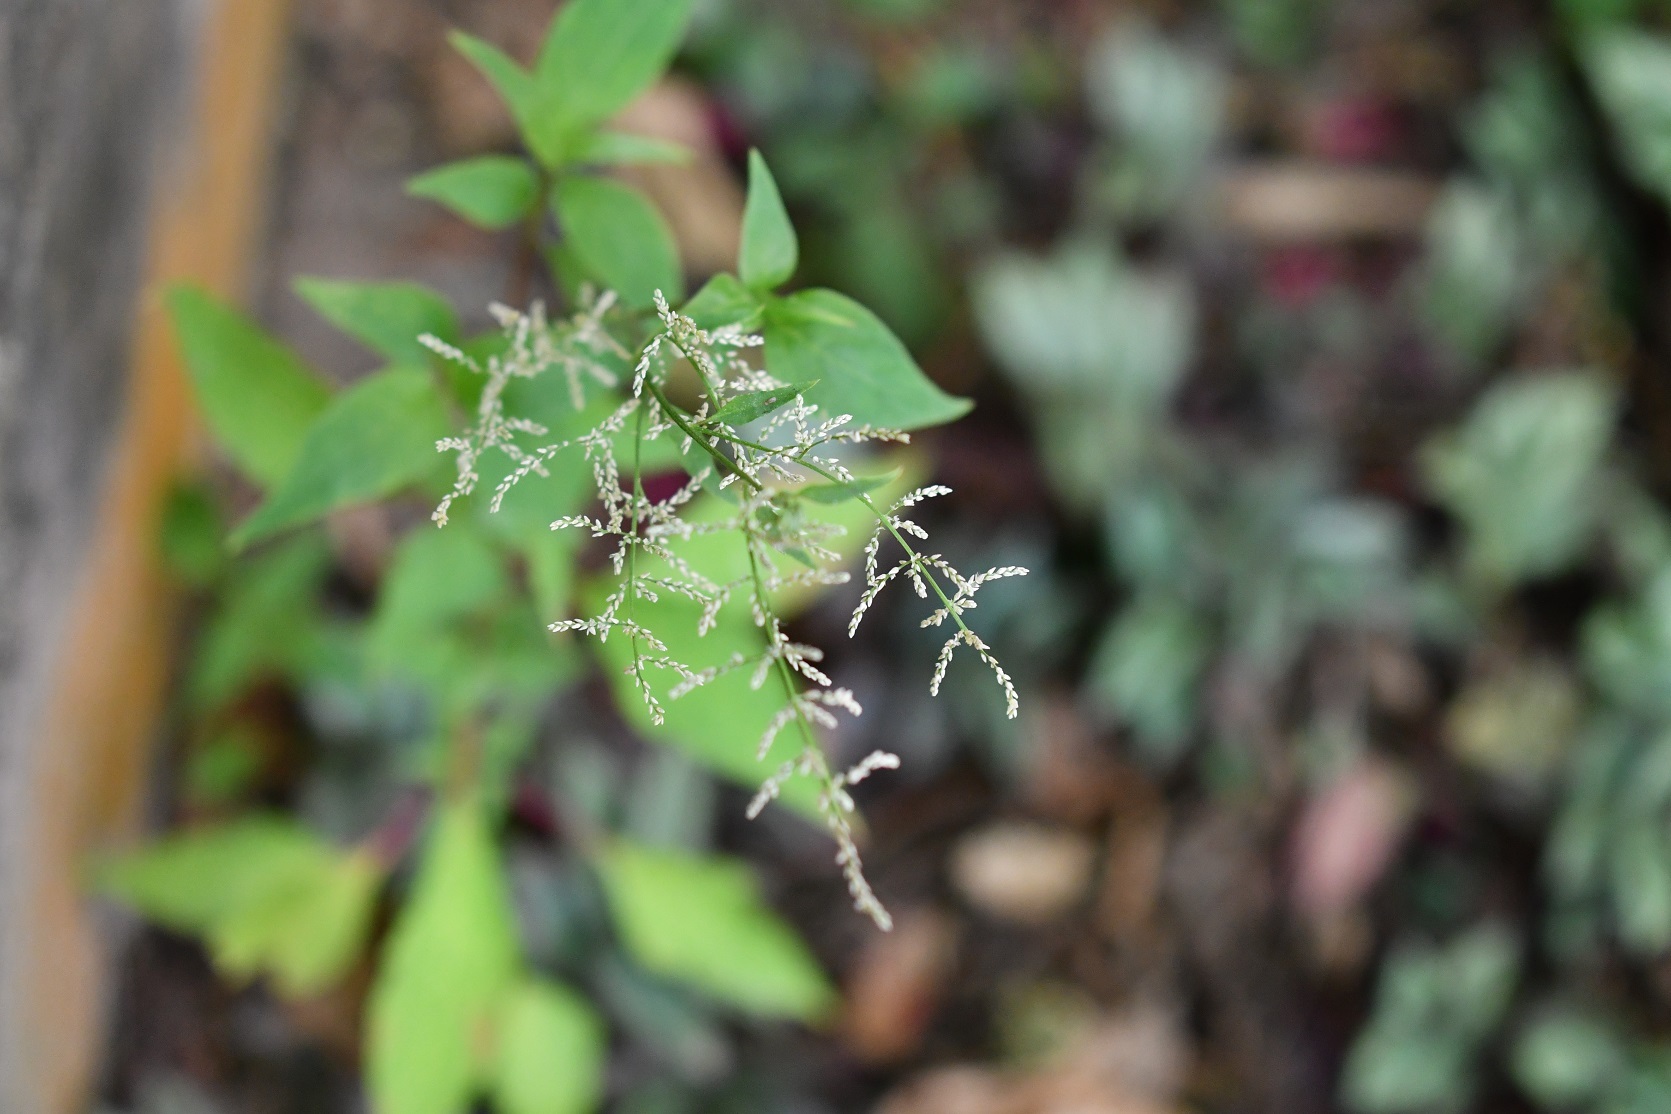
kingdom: Plantae
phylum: Tracheophyta
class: Magnoliopsida
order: Caryophyllales
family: Amaranthaceae
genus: Iresine
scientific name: Iresine diffusa
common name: Juba's-bush
